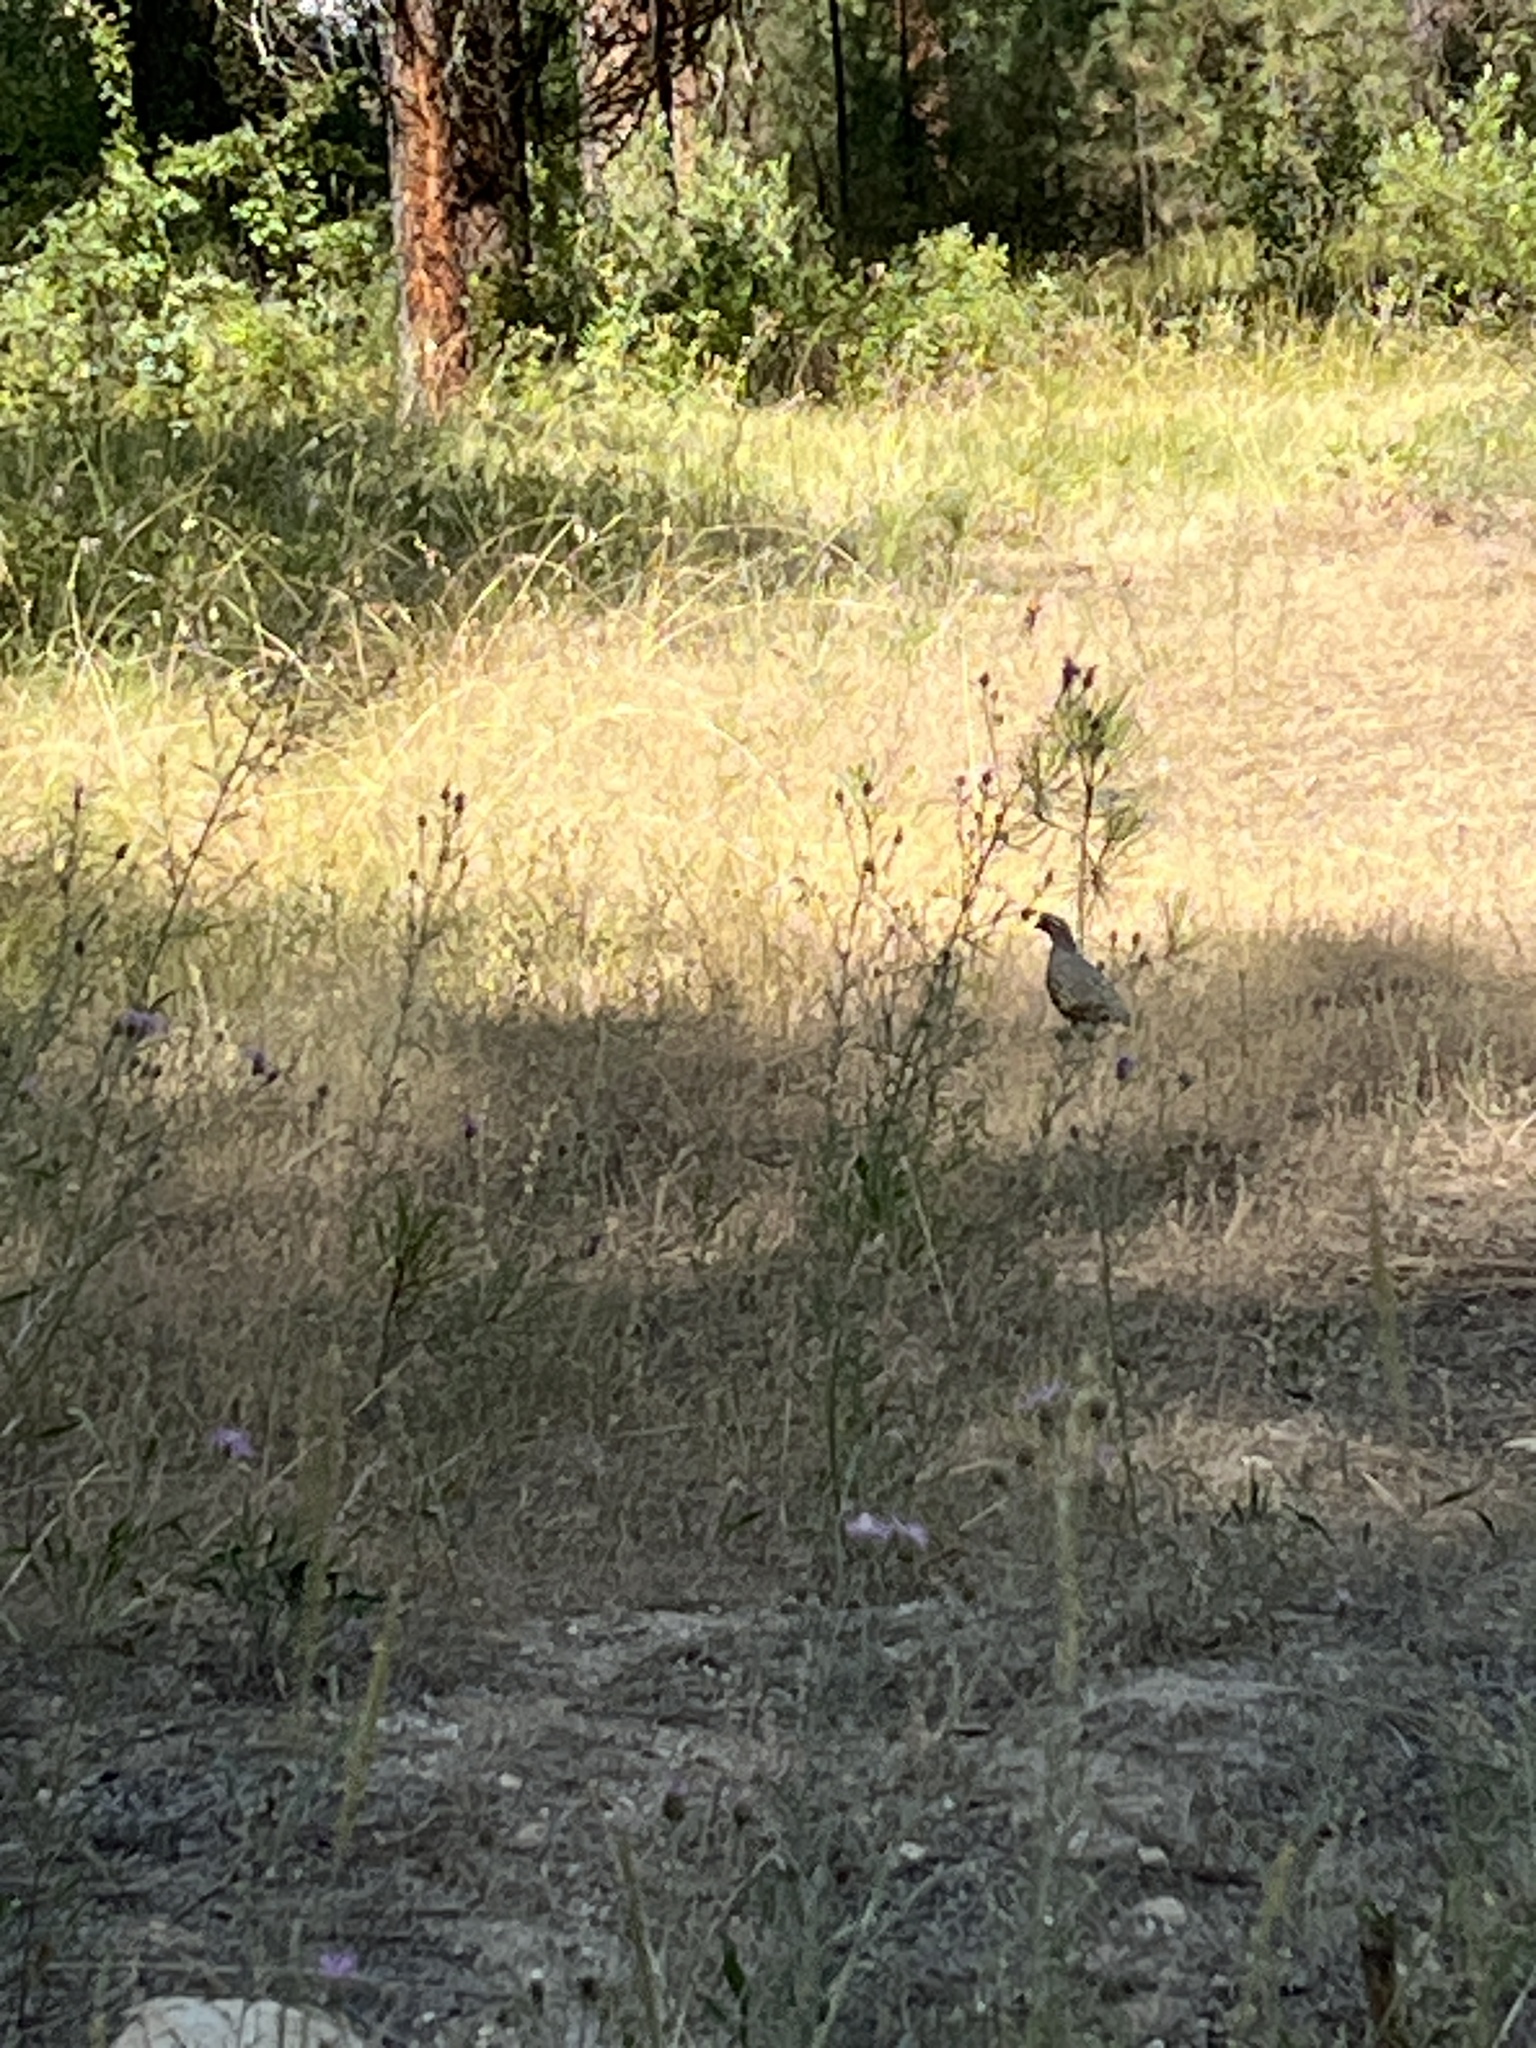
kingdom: Animalia
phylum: Chordata
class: Aves
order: Galliformes
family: Odontophoridae
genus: Callipepla
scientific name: Callipepla californica
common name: California quail
